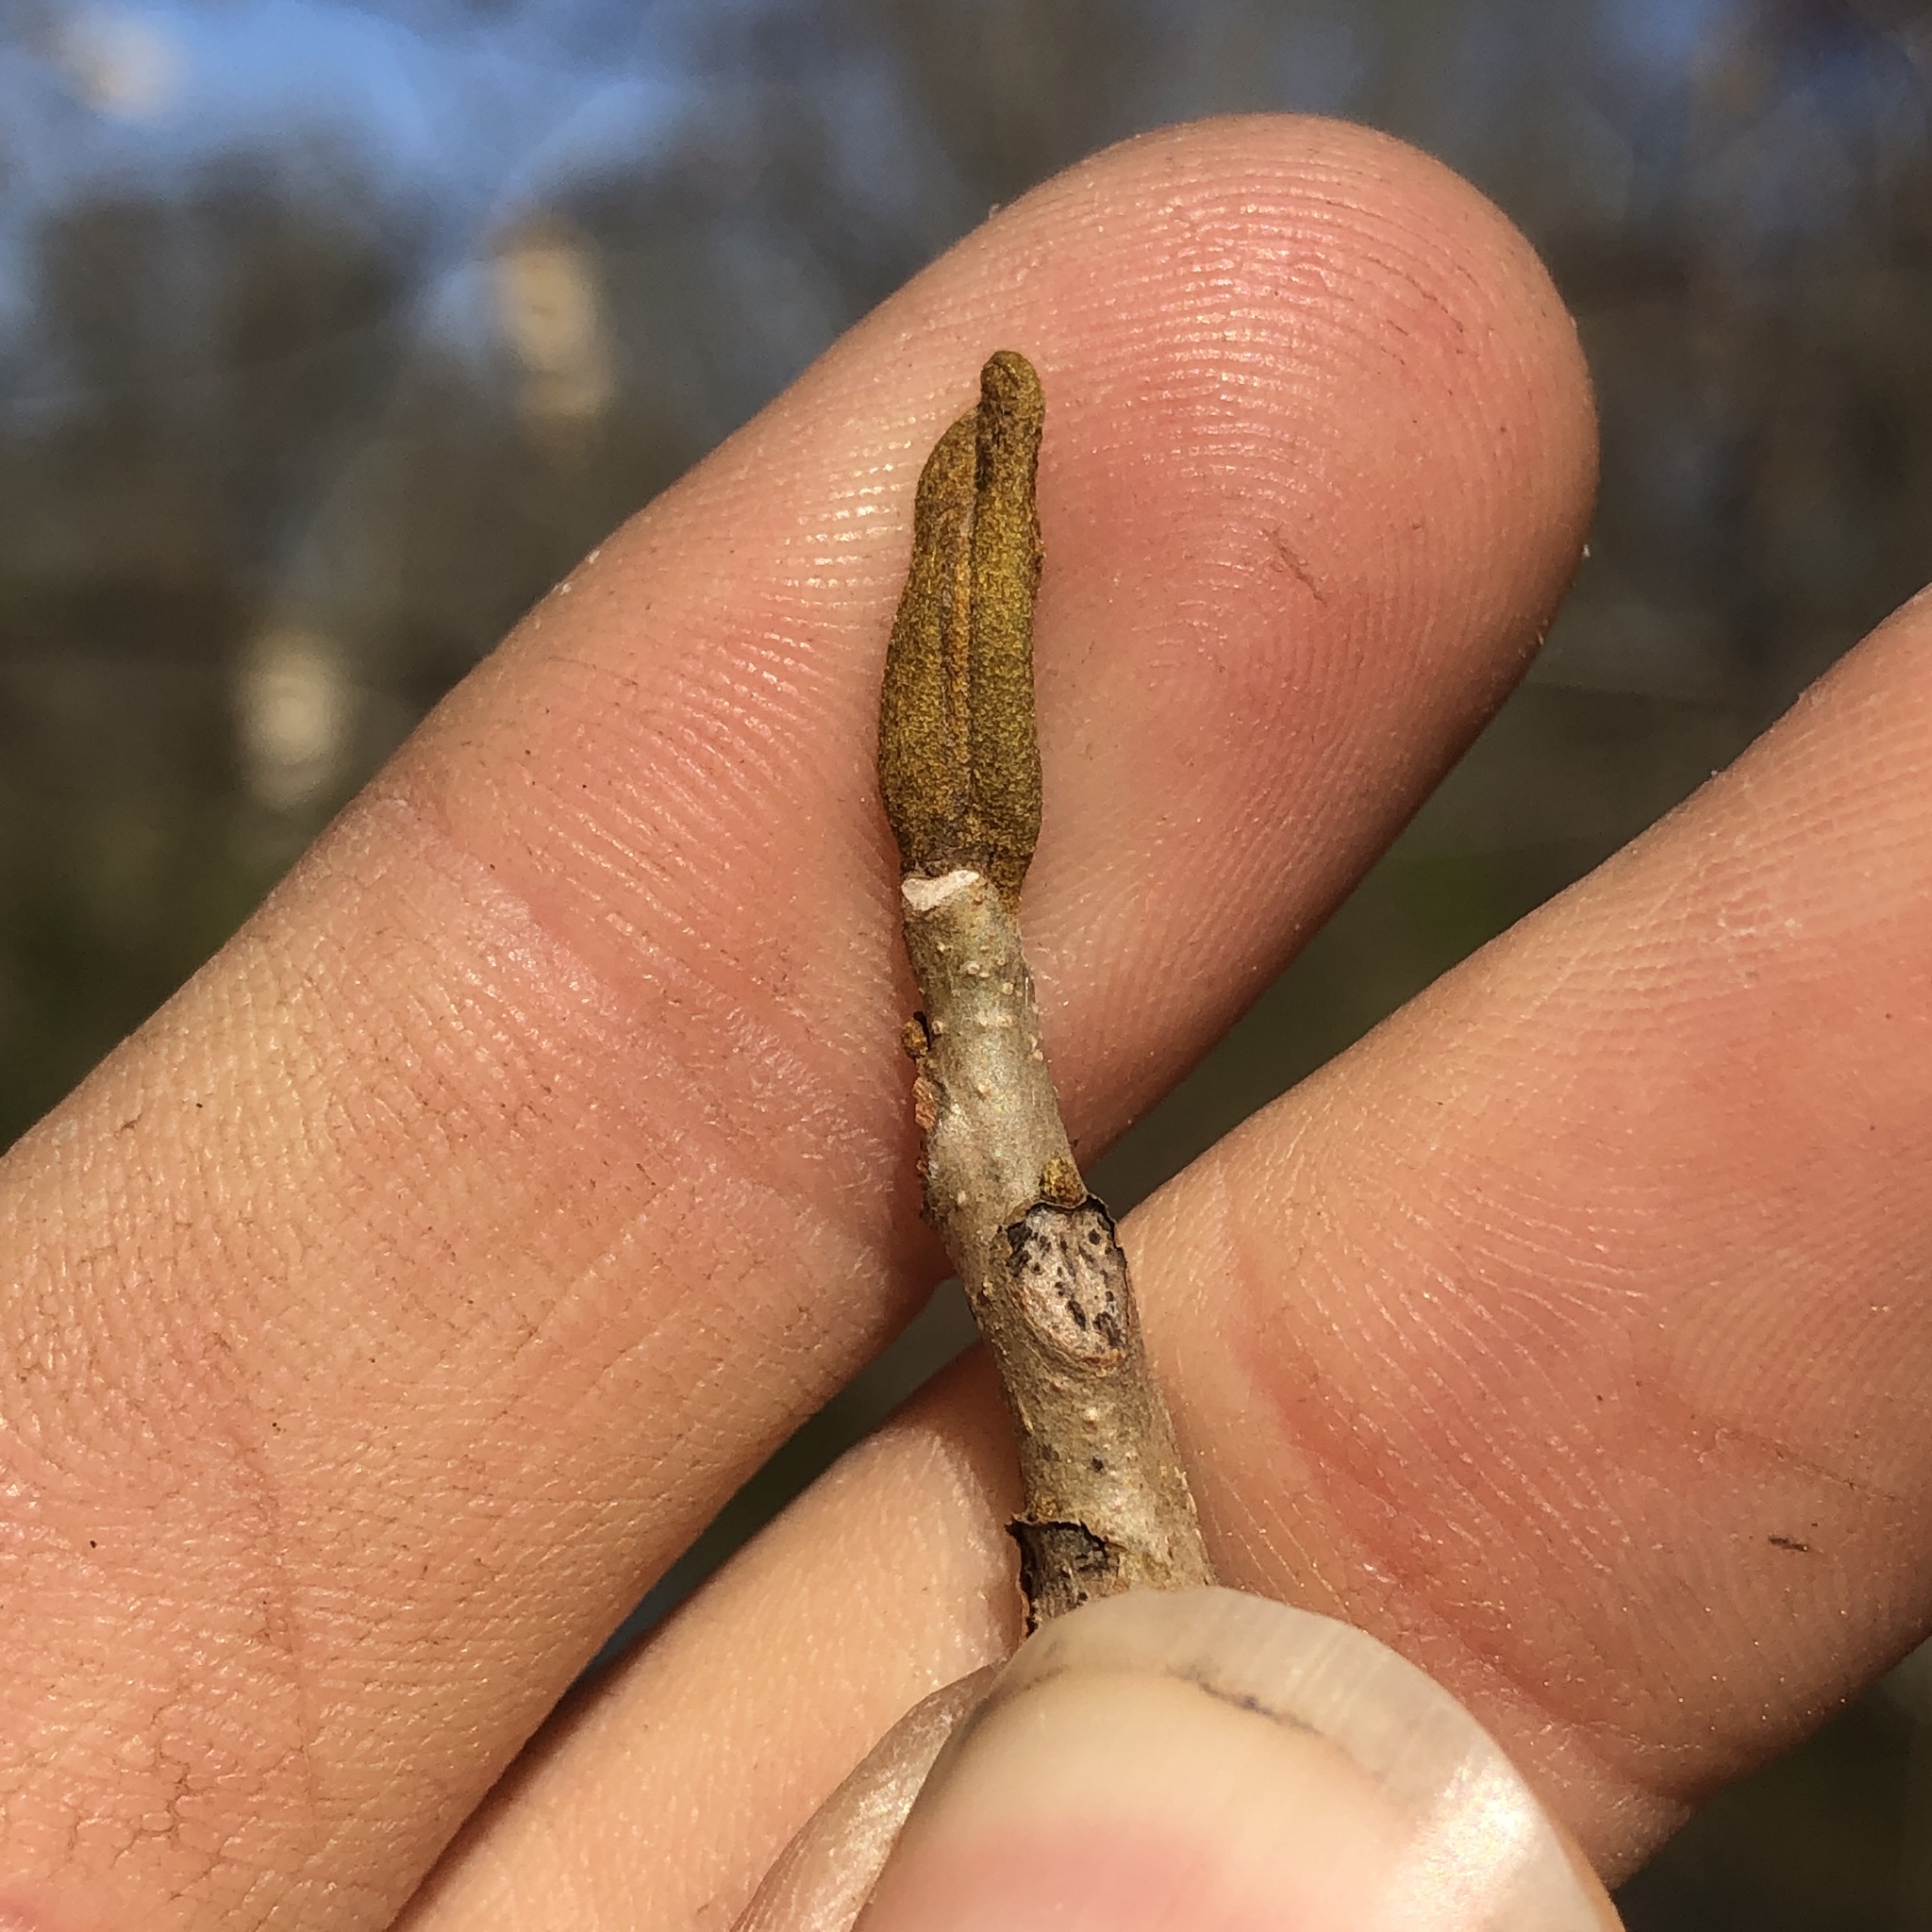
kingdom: Plantae
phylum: Tracheophyta
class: Magnoliopsida
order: Fagales
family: Juglandaceae
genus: Carya
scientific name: Carya cordiformis
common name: Bitternut hickory
